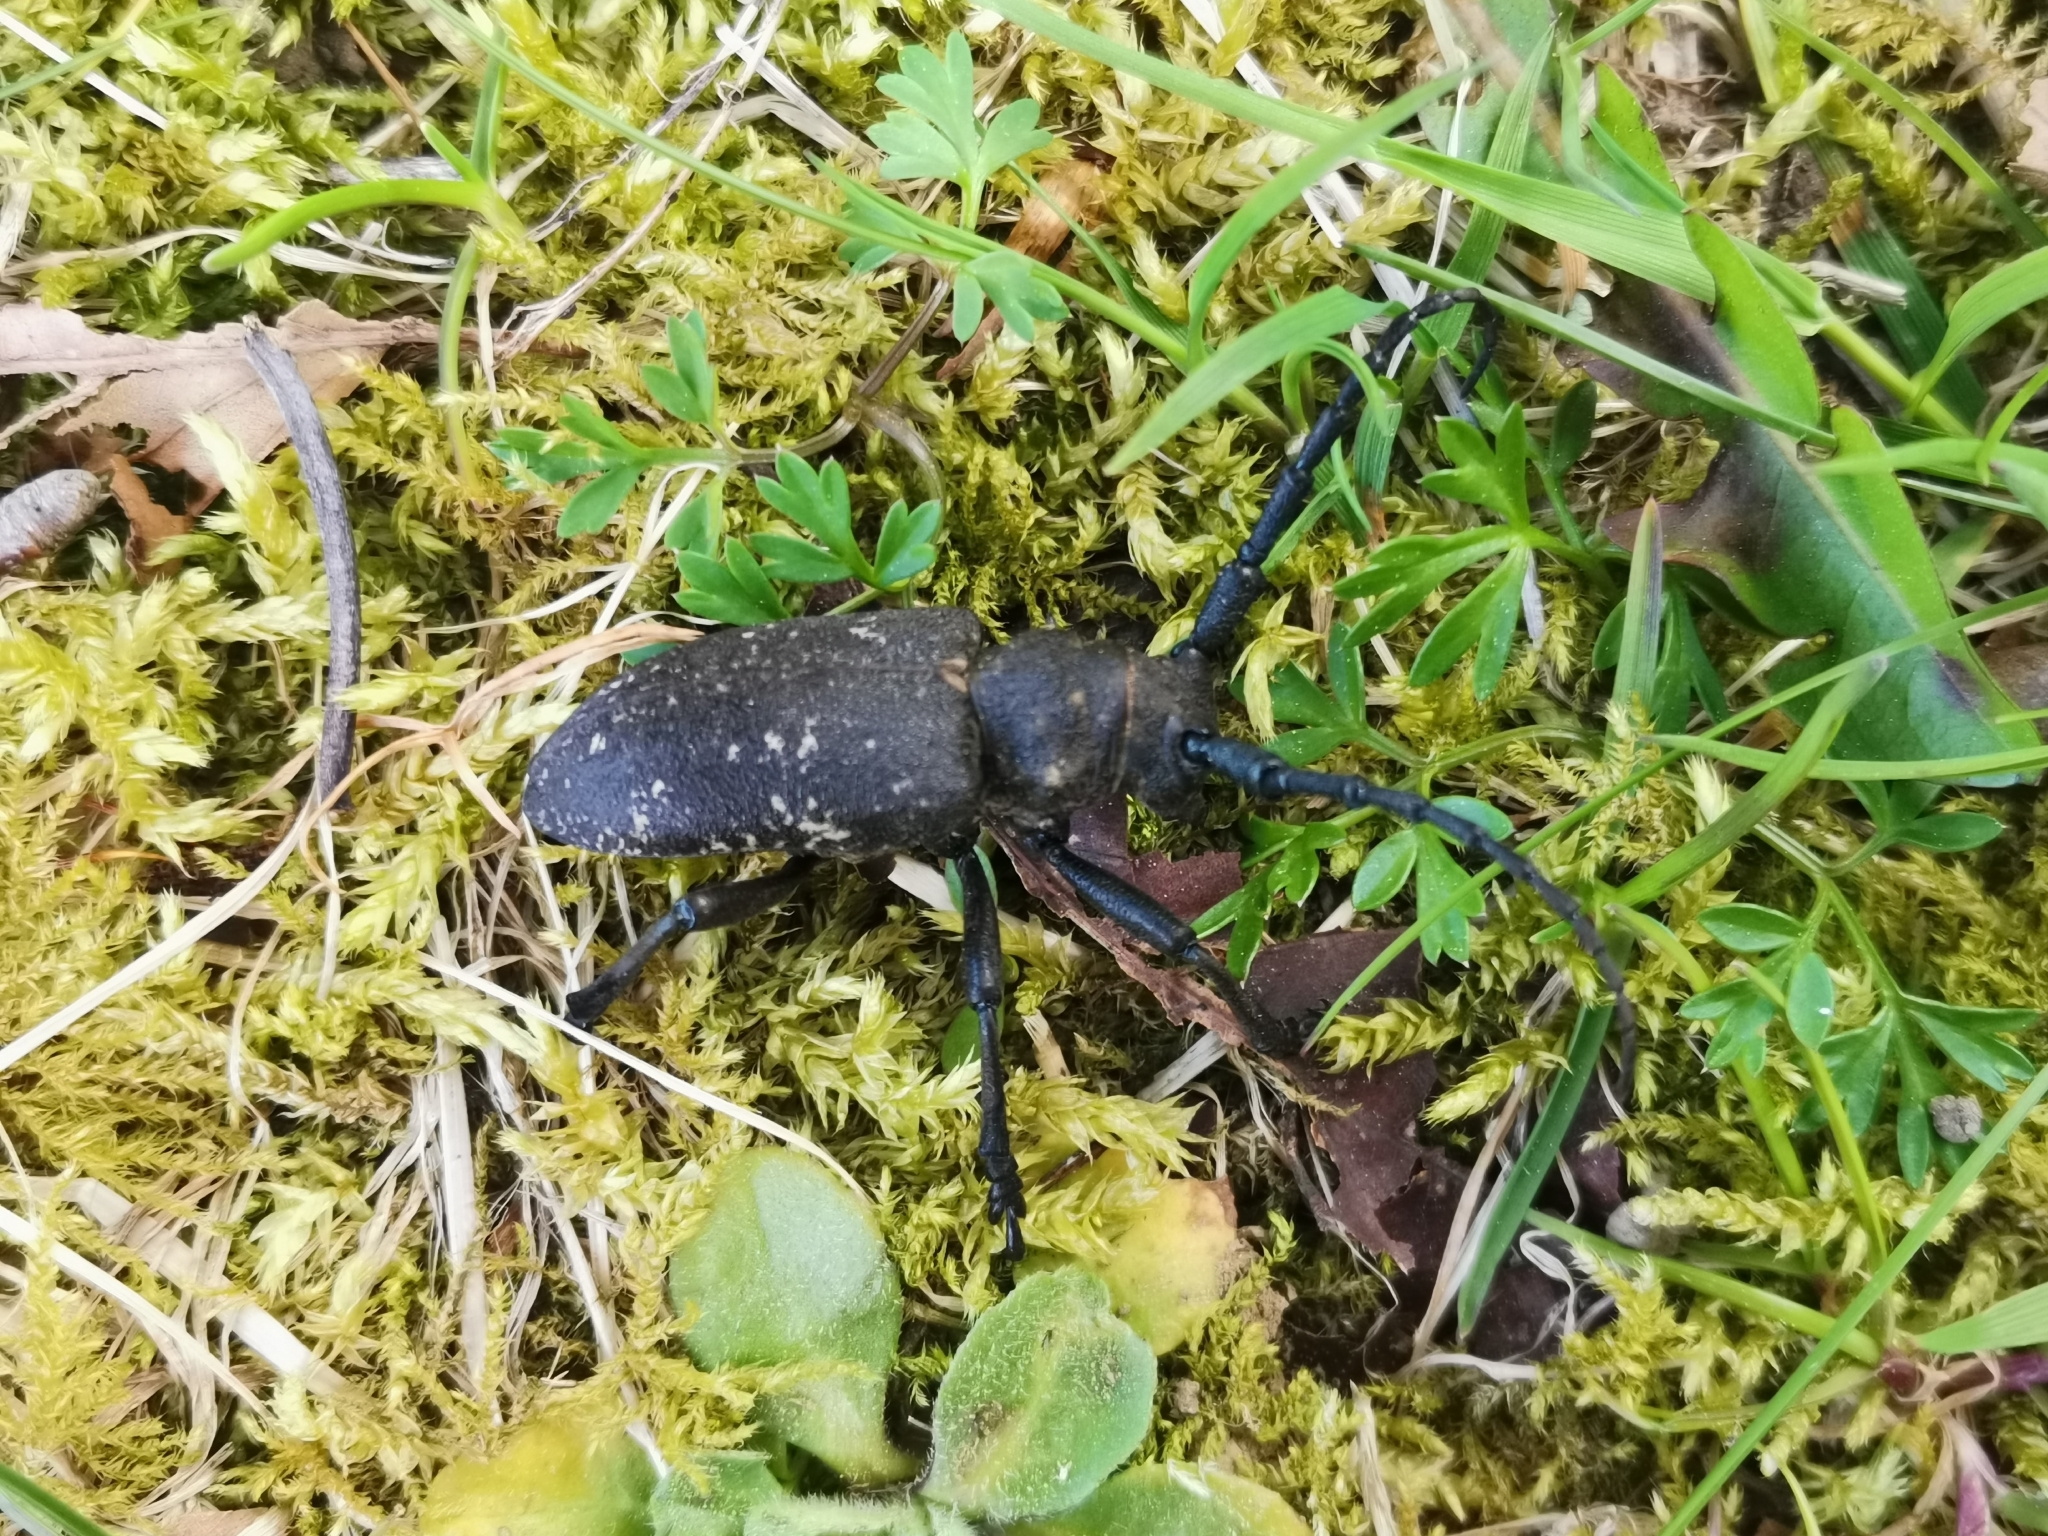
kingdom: Animalia
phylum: Arthropoda
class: Insecta
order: Coleoptera
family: Cerambycidae
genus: Lamia
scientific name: Lamia textor
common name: Weaver beetle
